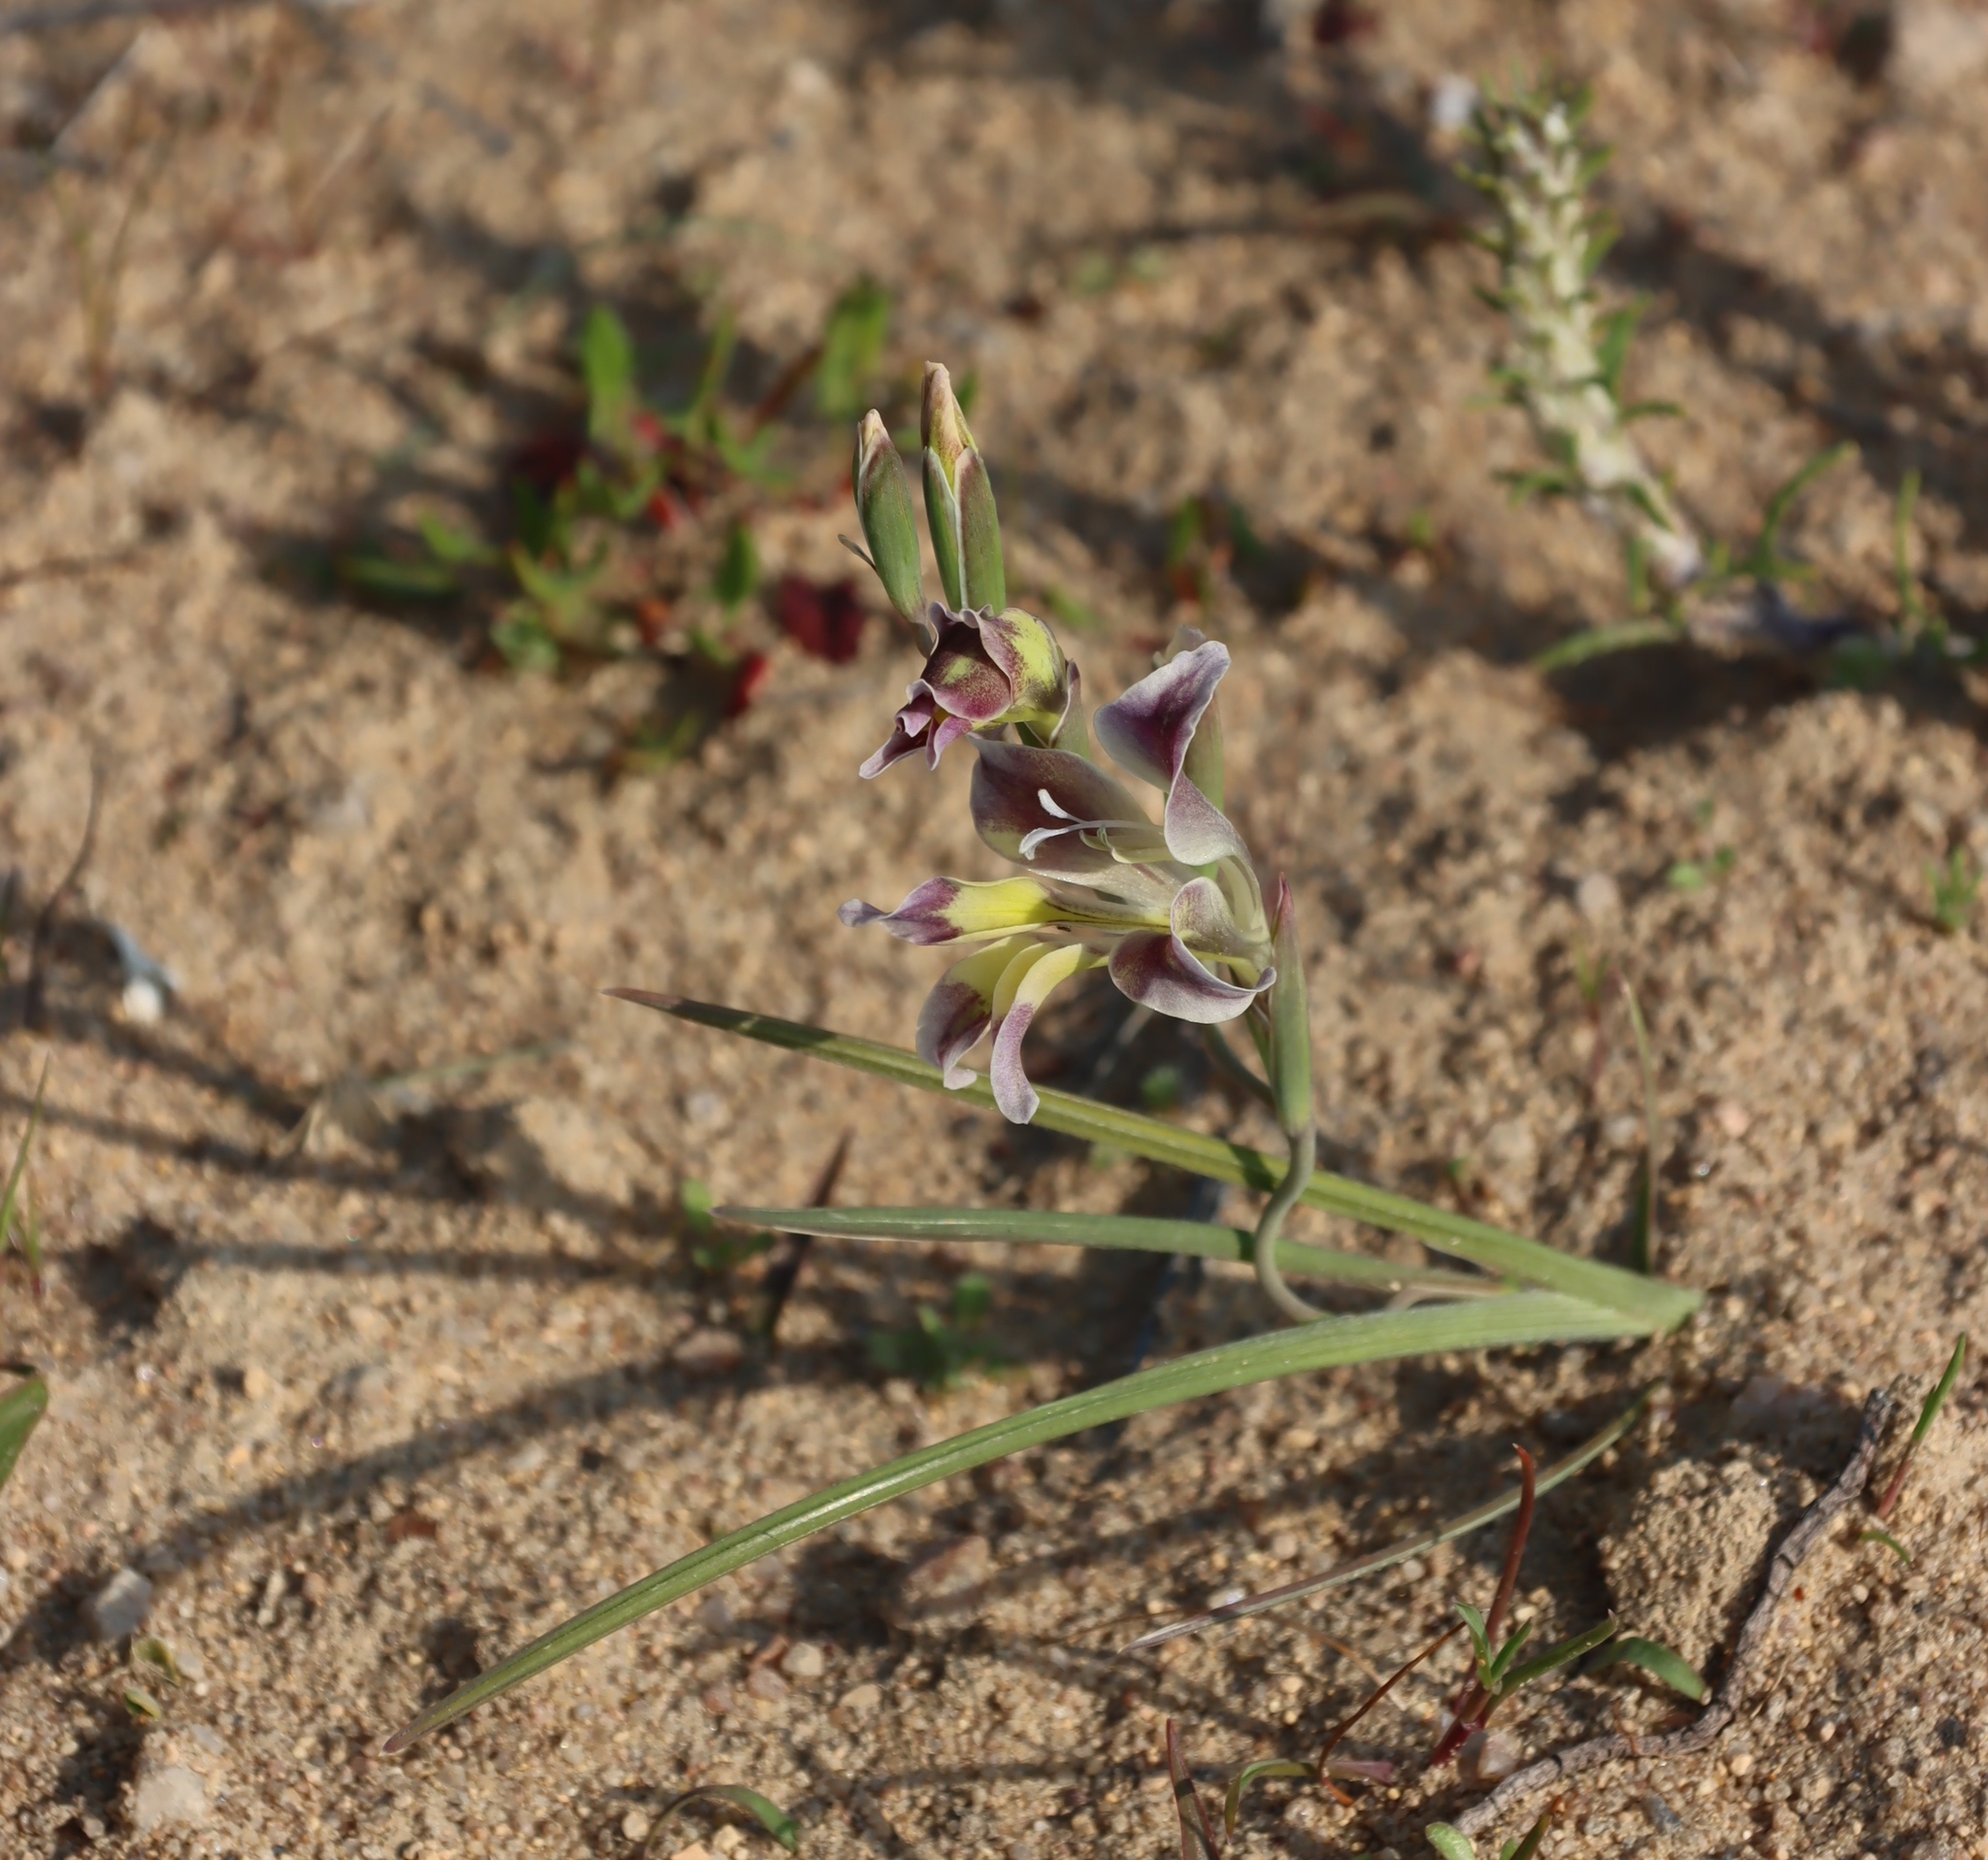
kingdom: Plantae
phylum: Tracheophyta
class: Liliopsida
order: Asparagales
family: Iridaceae
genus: Gladiolus
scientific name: Gladiolus arcuatus
